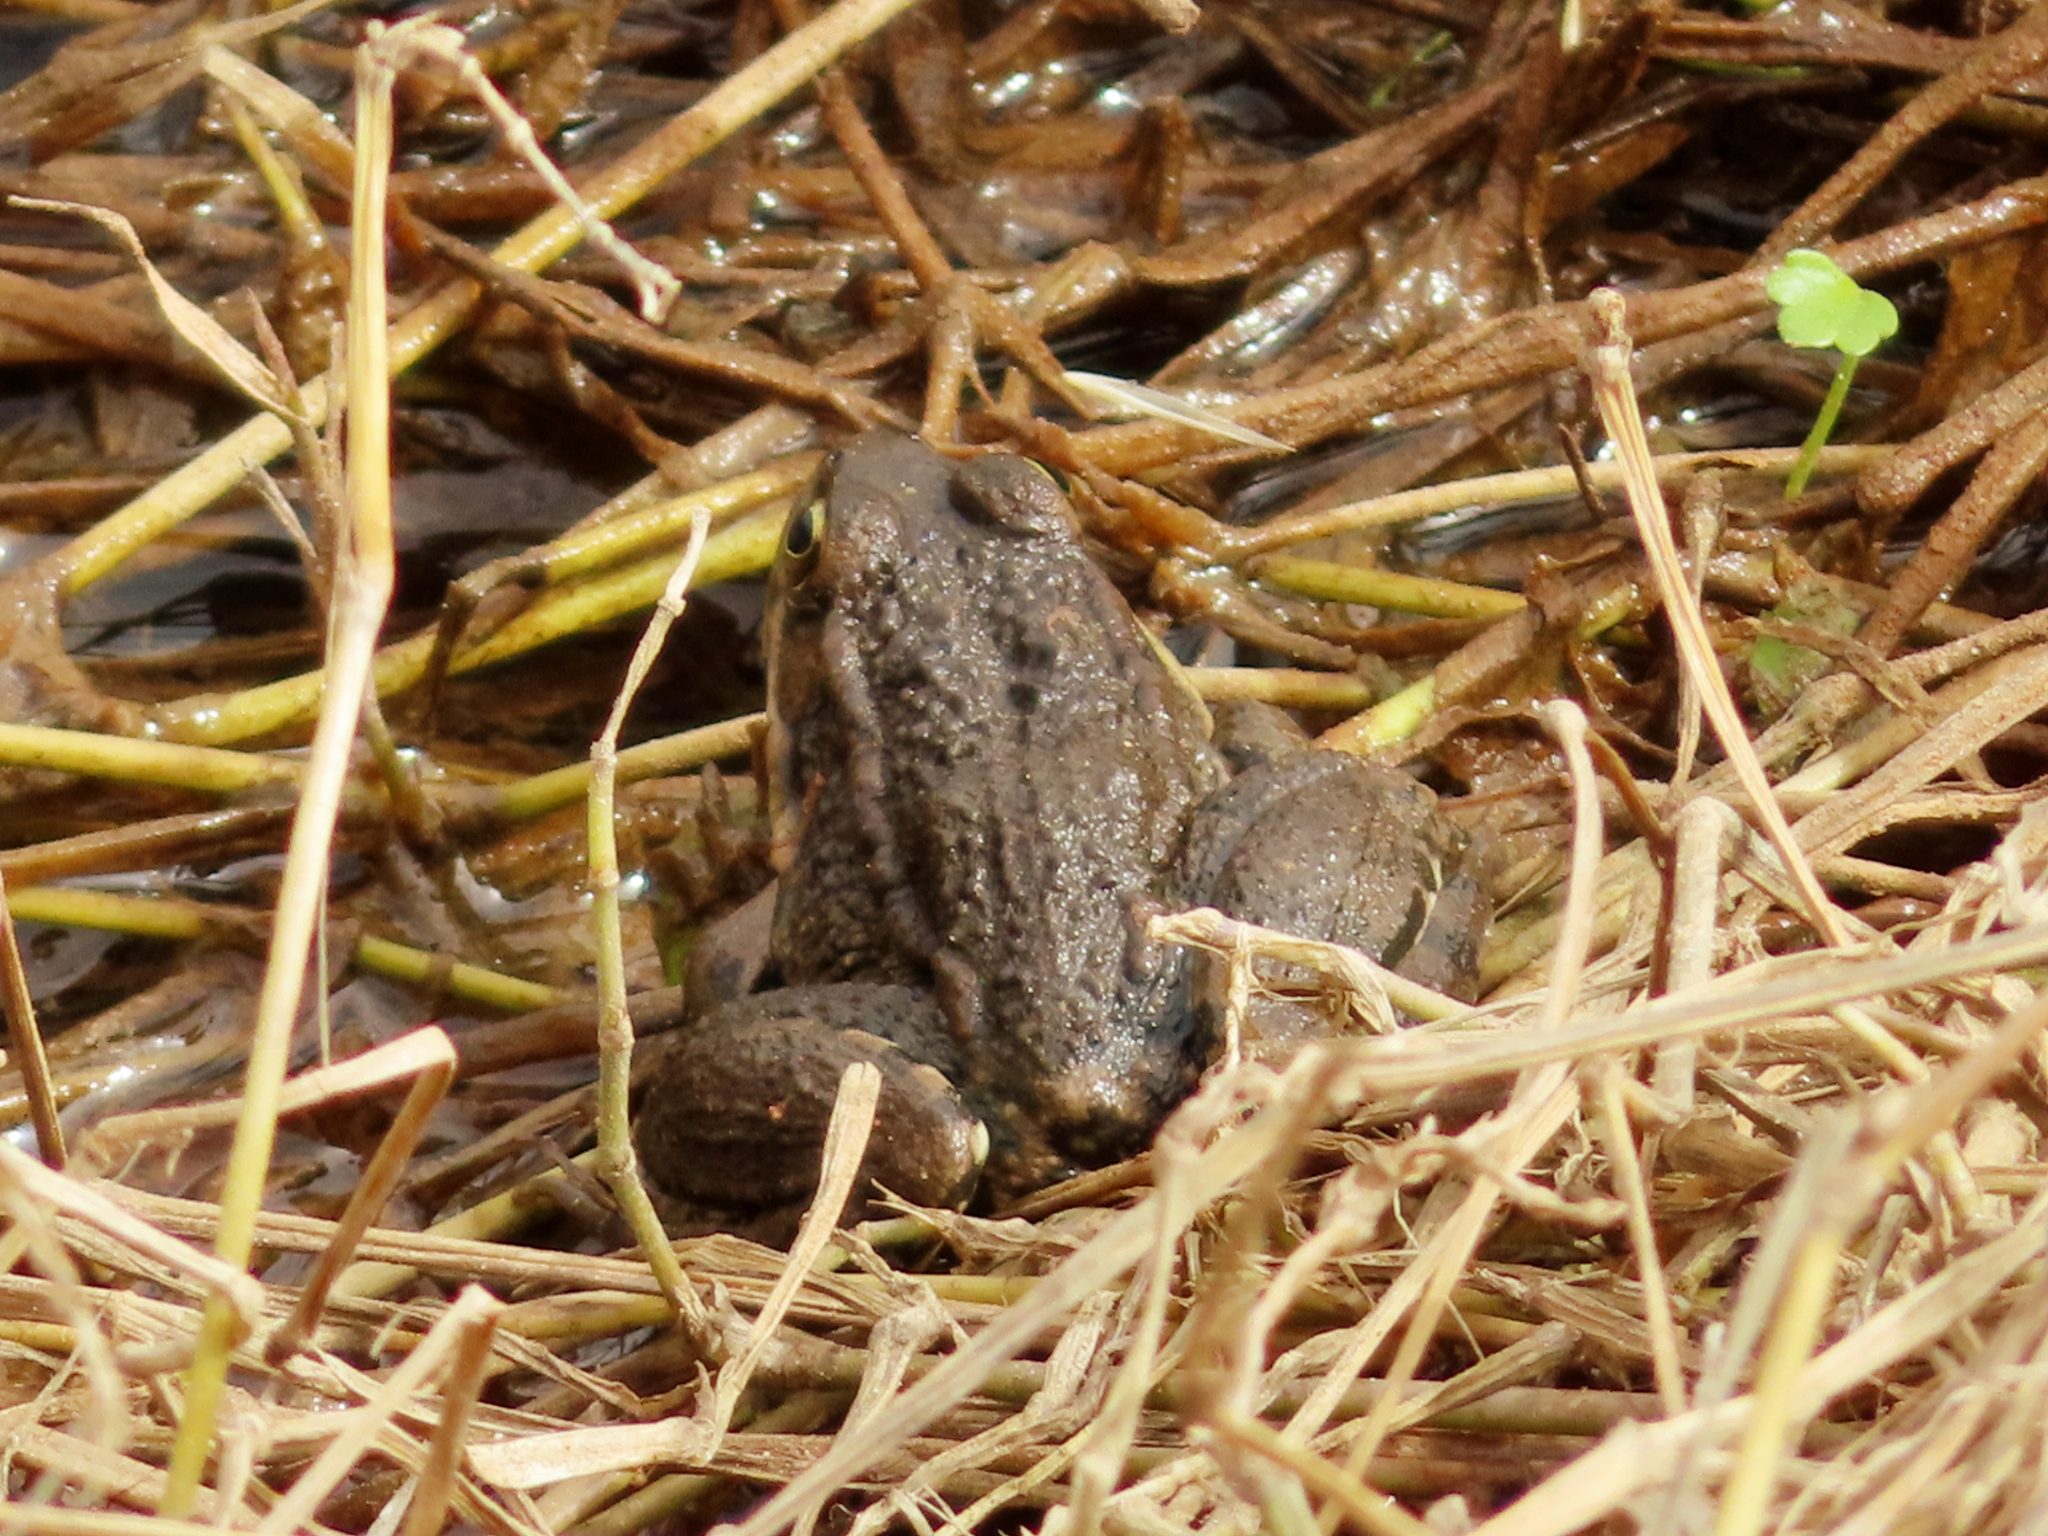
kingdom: Animalia
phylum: Chordata
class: Amphibia
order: Anura
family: Ranidae
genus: Pelophylax
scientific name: Pelophylax ridibundus
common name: Marsh frog
